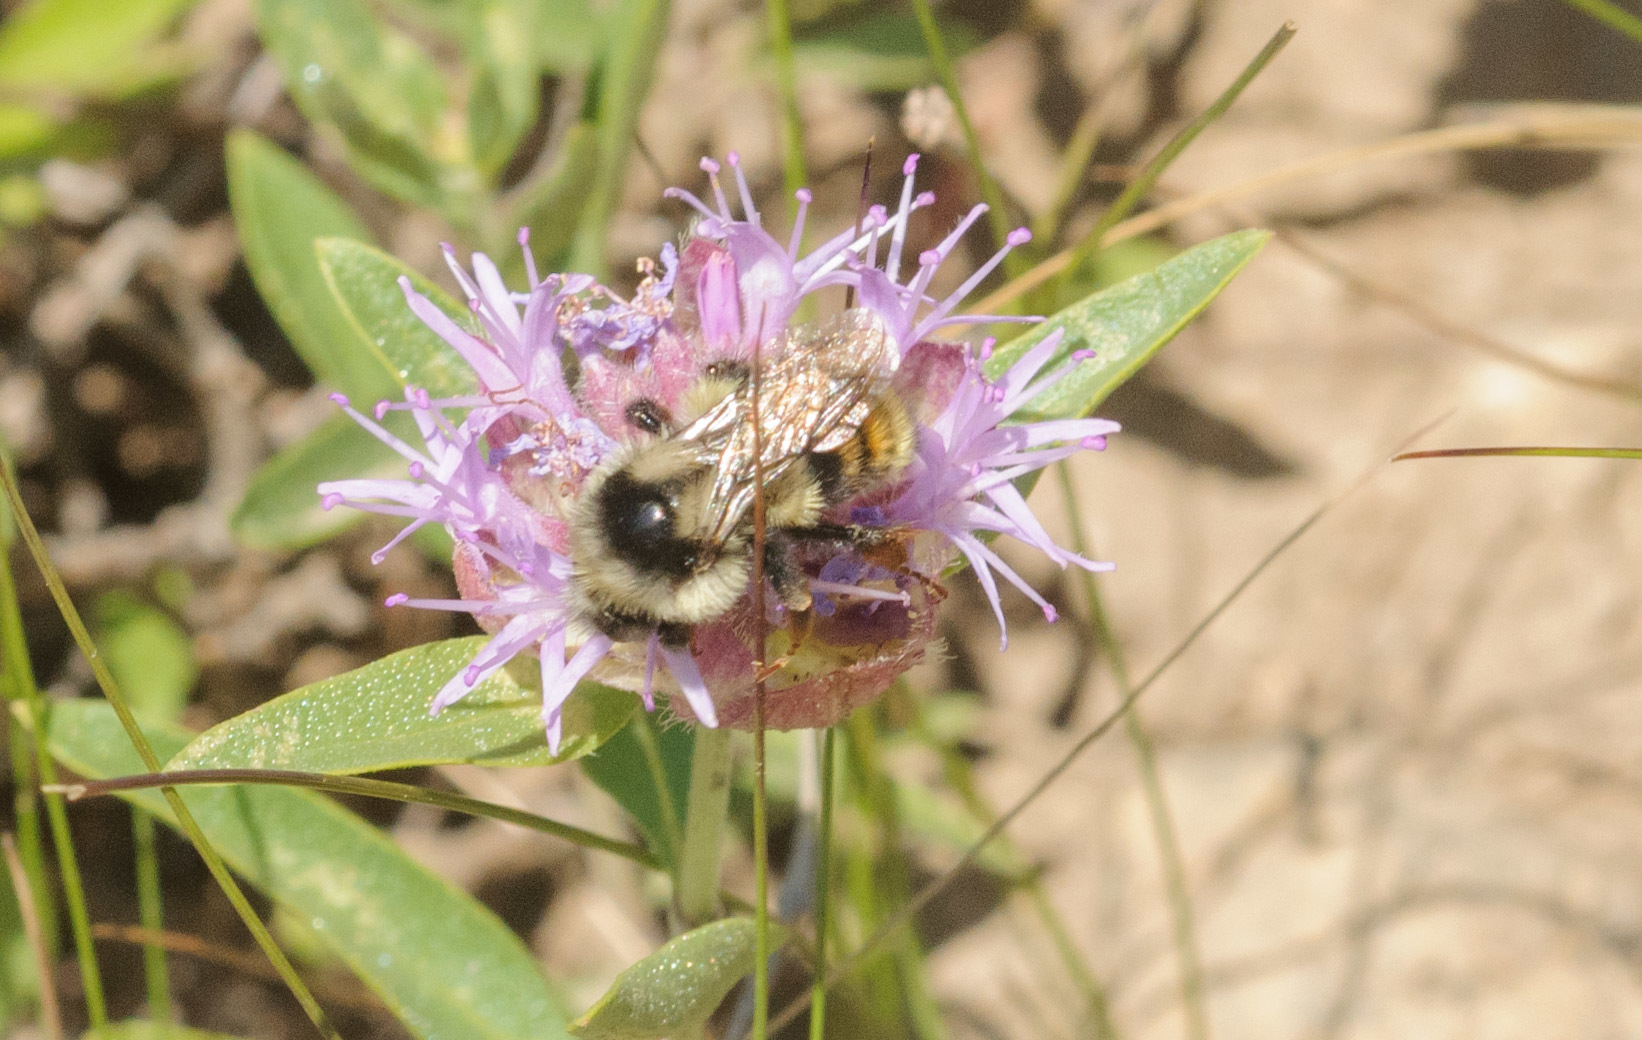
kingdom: Animalia
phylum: Arthropoda
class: Insecta
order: Hymenoptera
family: Apidae
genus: Bombus
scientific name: Bombus
